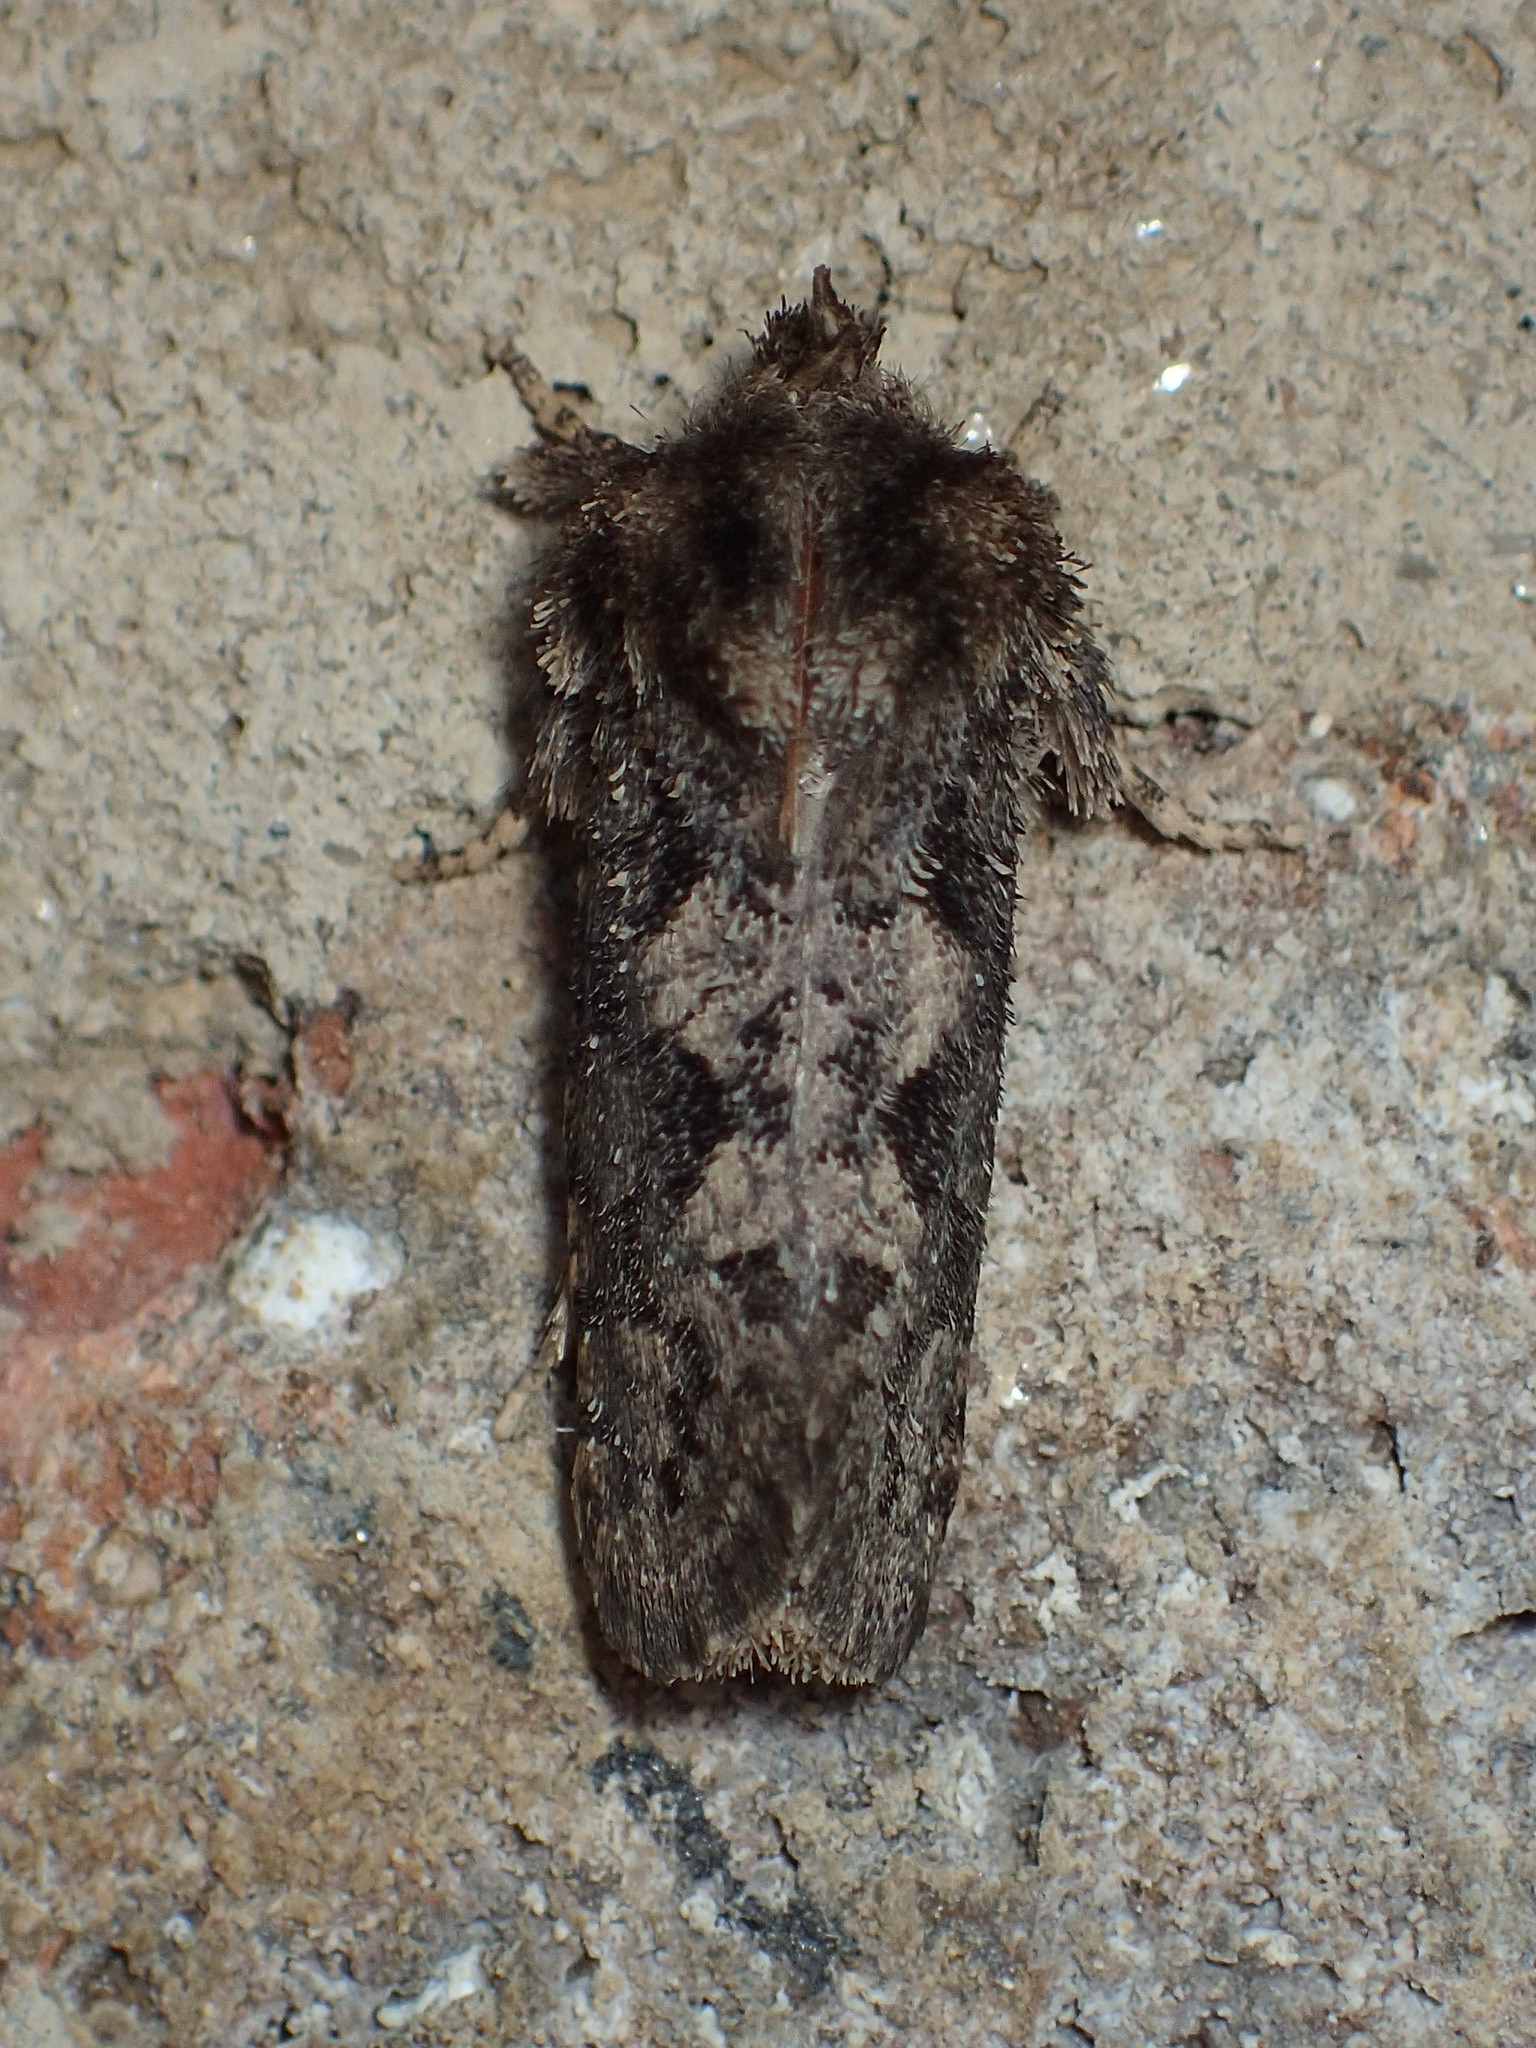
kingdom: Animalia
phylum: Arthropoda
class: Insecta
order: Lepidoptera
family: Tineidae
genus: Acrolophus
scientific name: Acrolophus arcanella
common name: Arcane grass tubeworm moth
